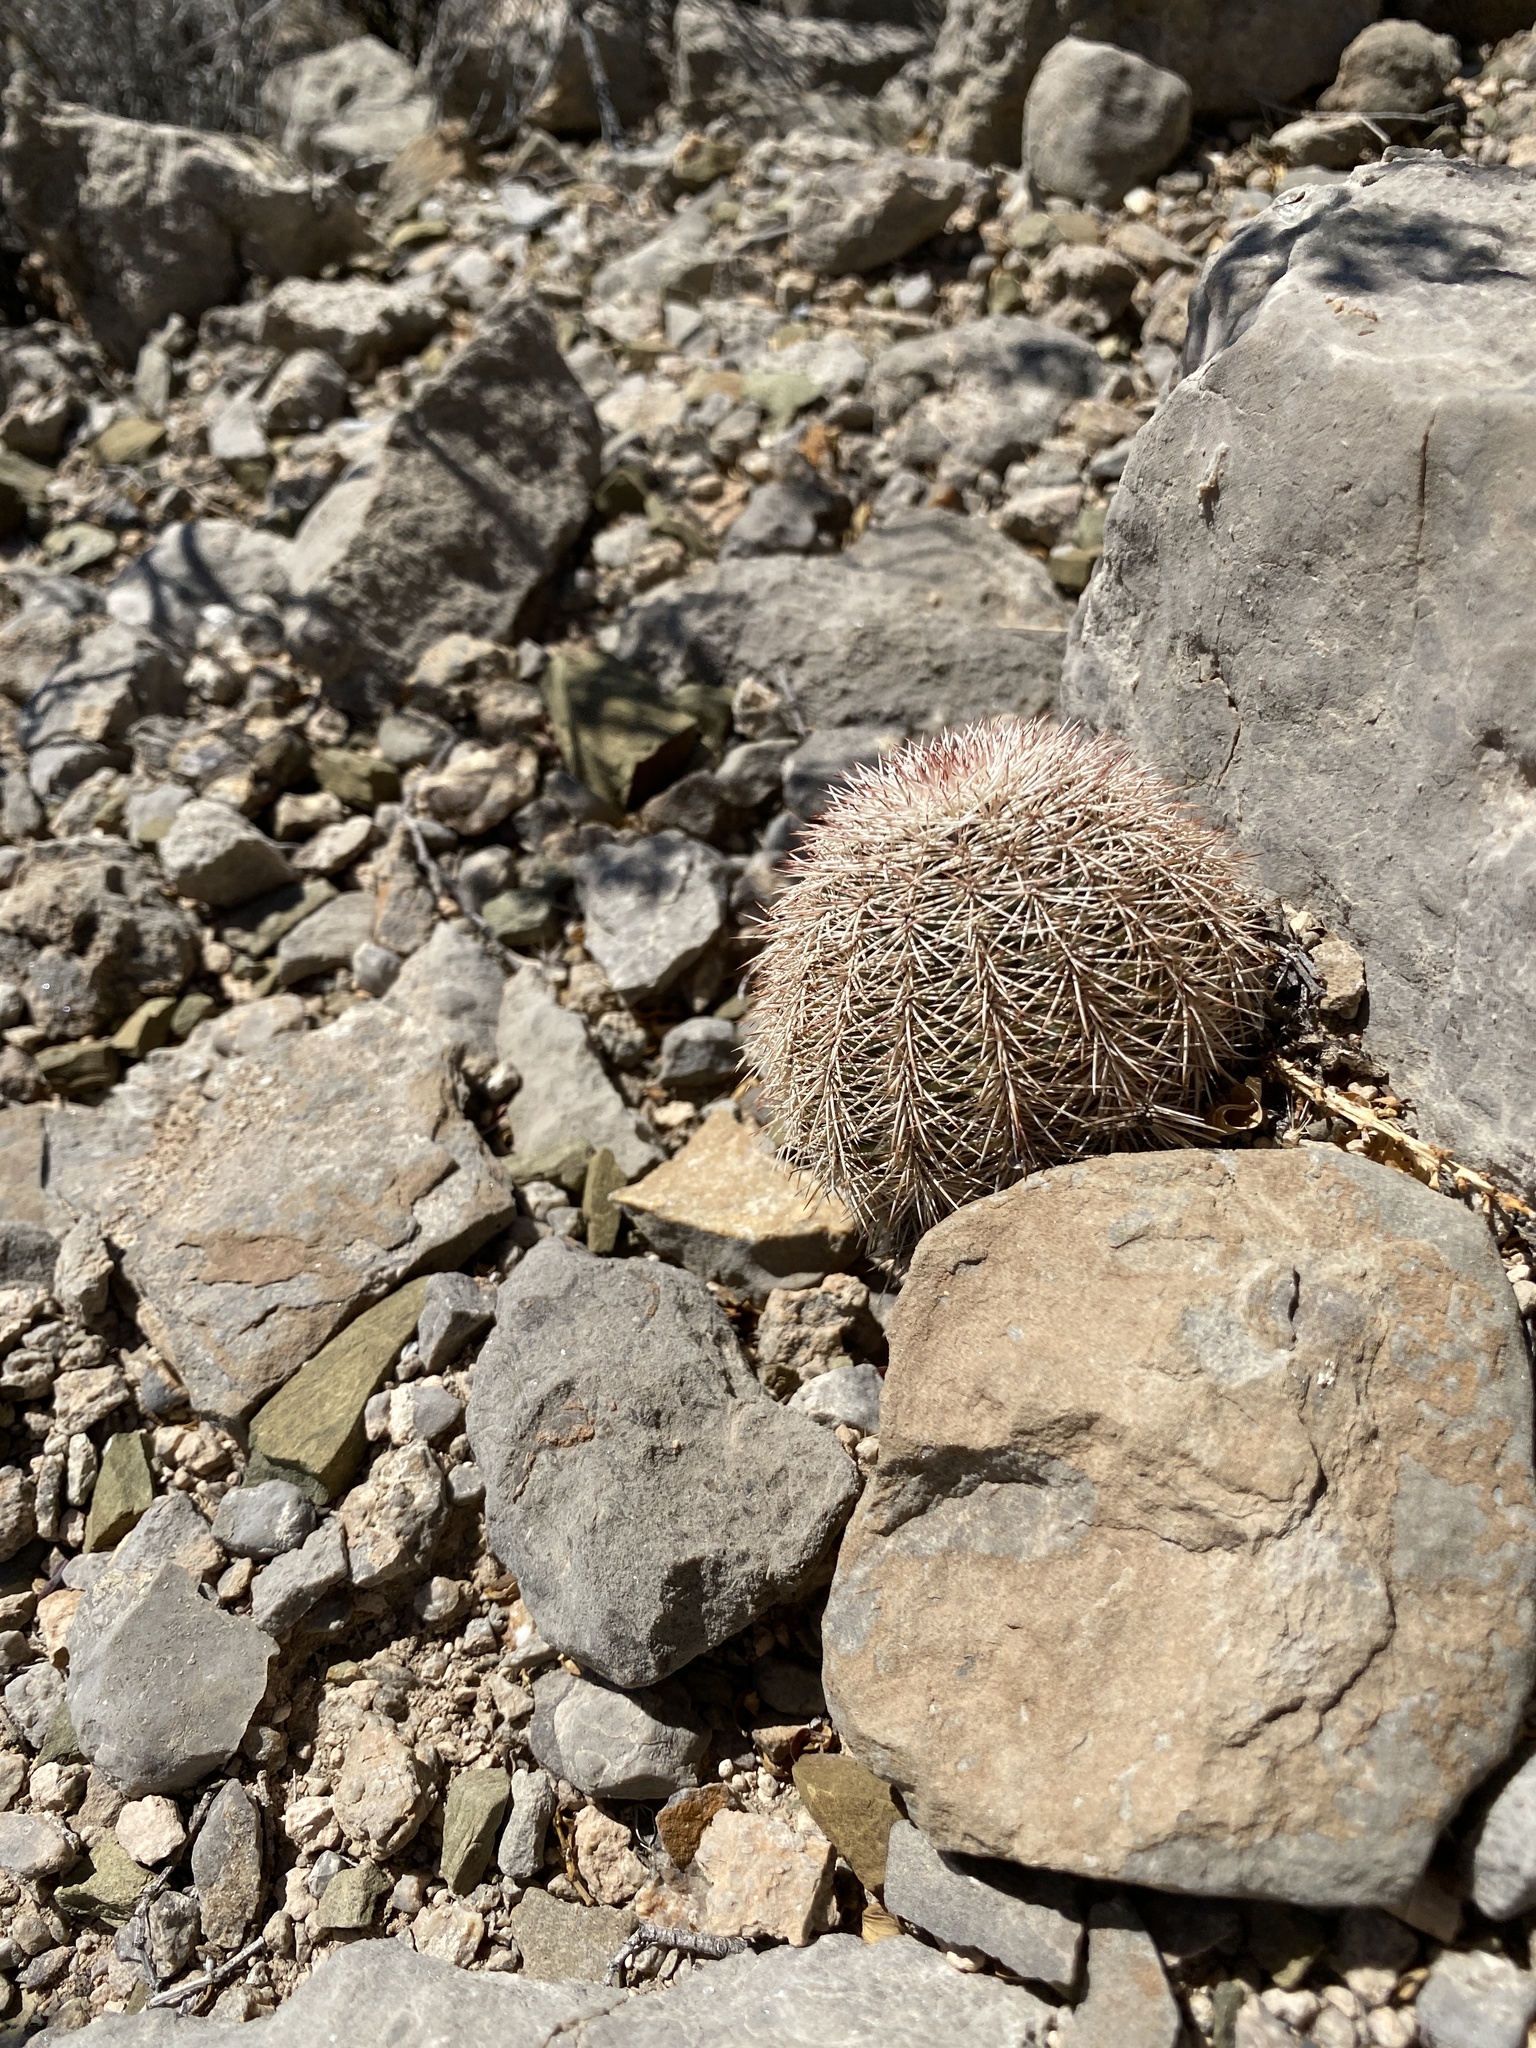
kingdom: Plantae
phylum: Tracheophyta
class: Magnoliopsida
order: Caryophyllales
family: Cactaceae
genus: Echinocereus
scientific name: Echinocereus dasyacanthus
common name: Spiny hedgehog cactus
